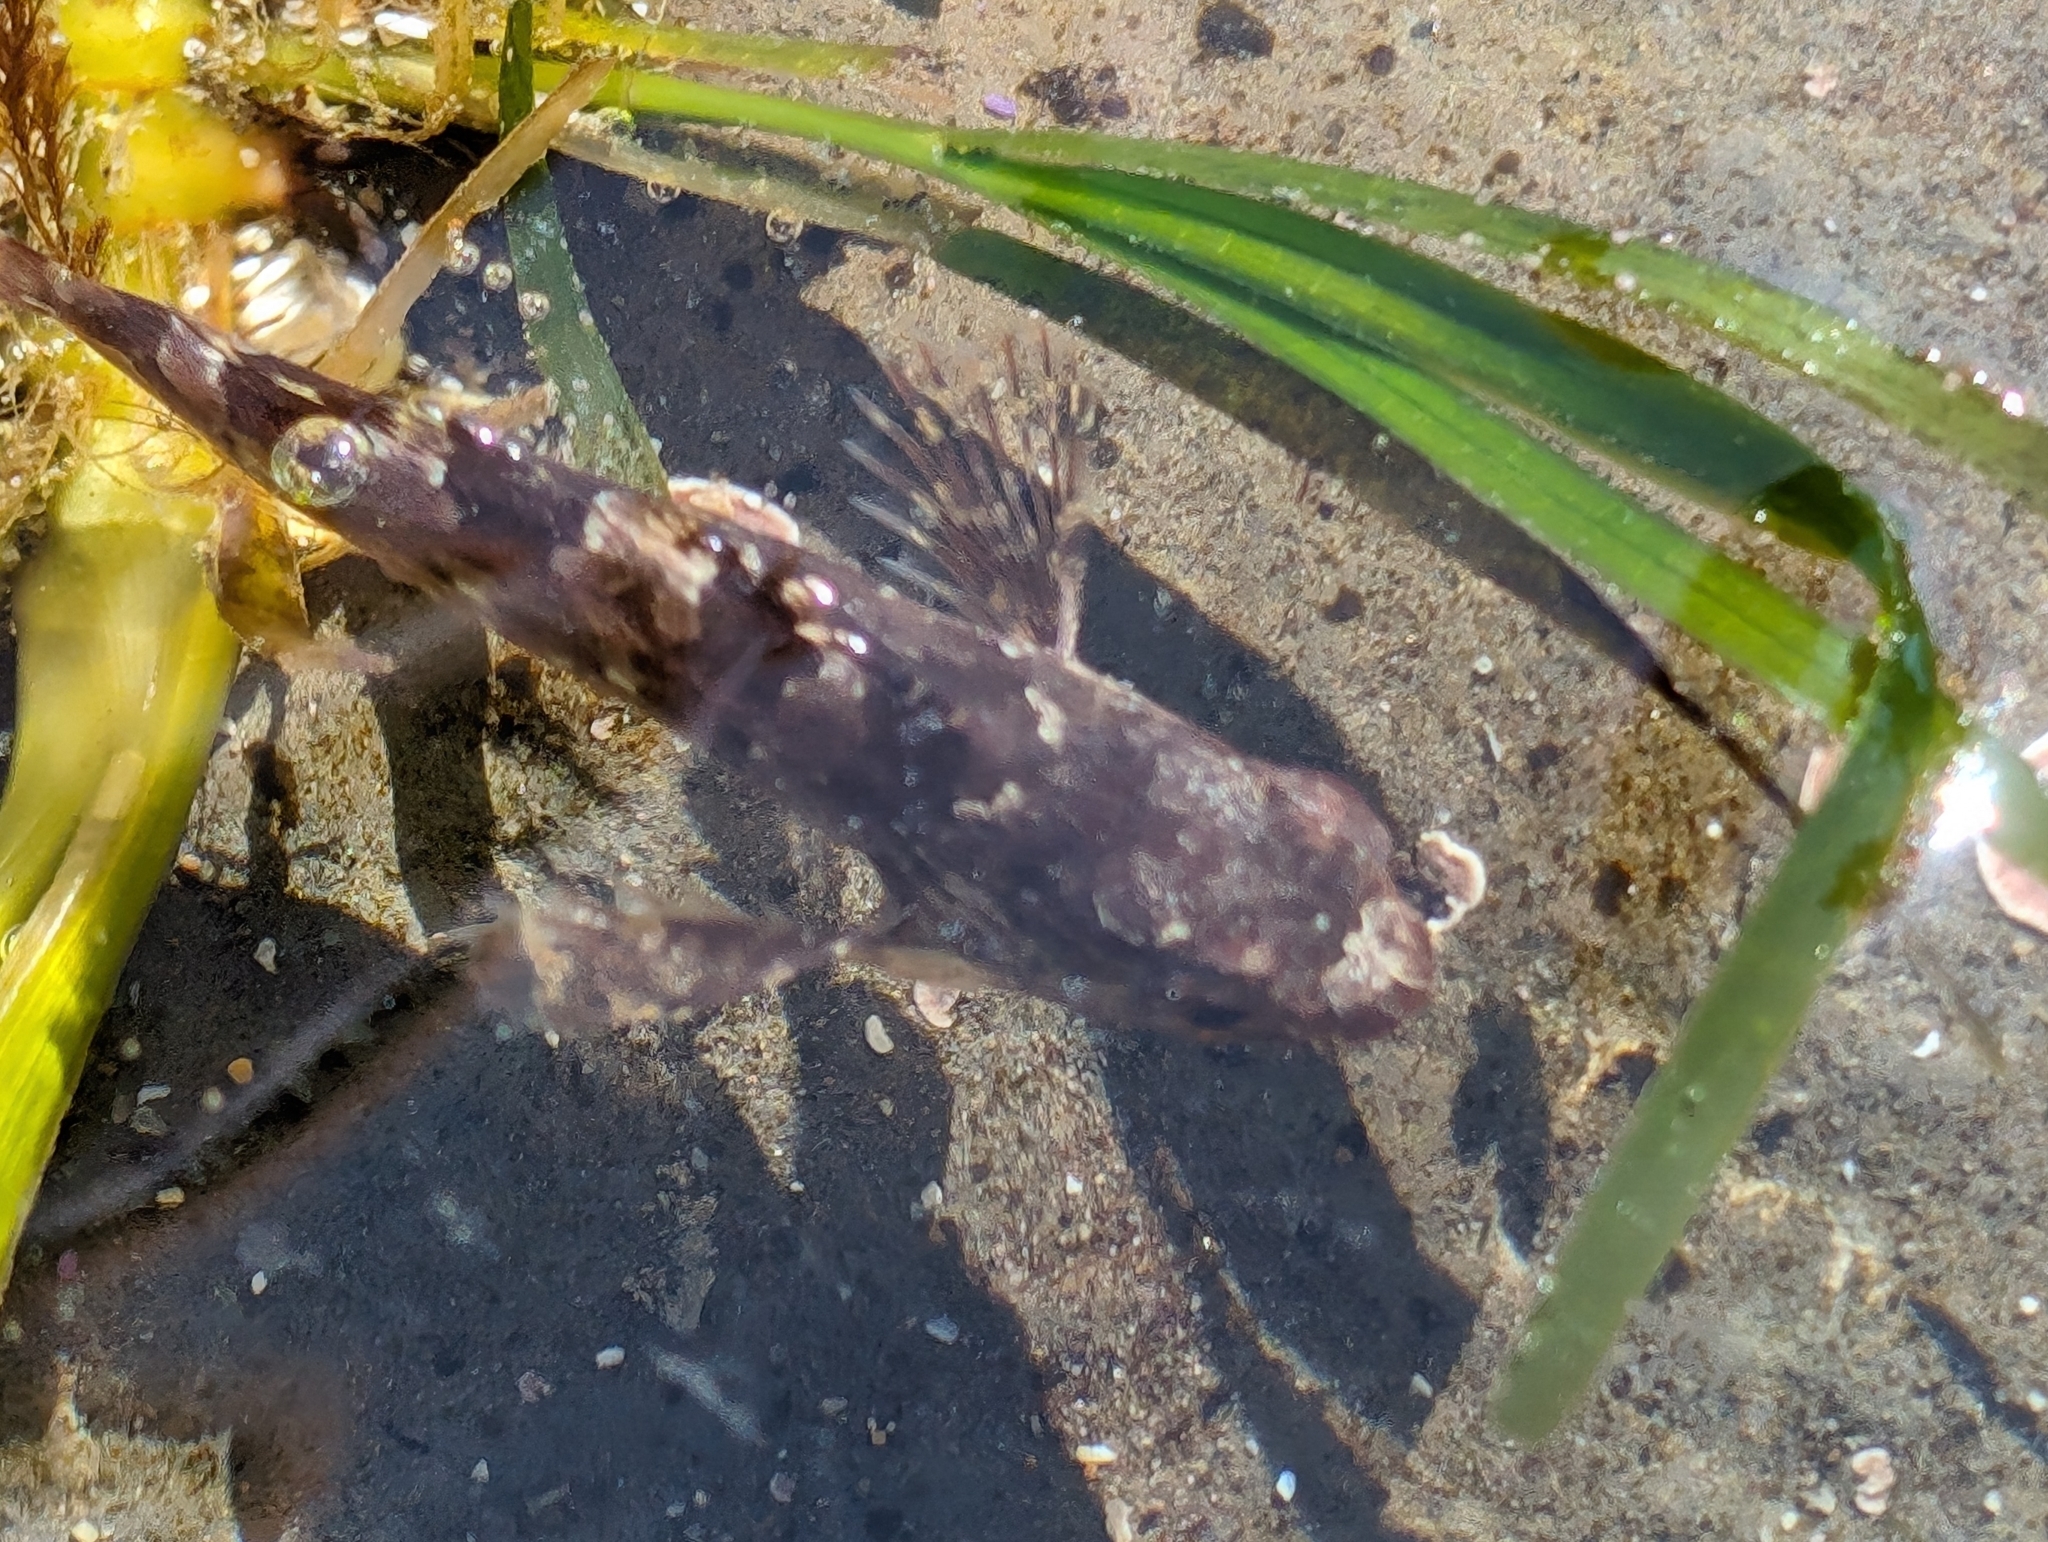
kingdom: Animalia
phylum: Chordata
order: Scorpaeniformes
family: Cottidae
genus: Scorpaenichthys
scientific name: Scorpaenichthys marmoratus
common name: Cabezon
